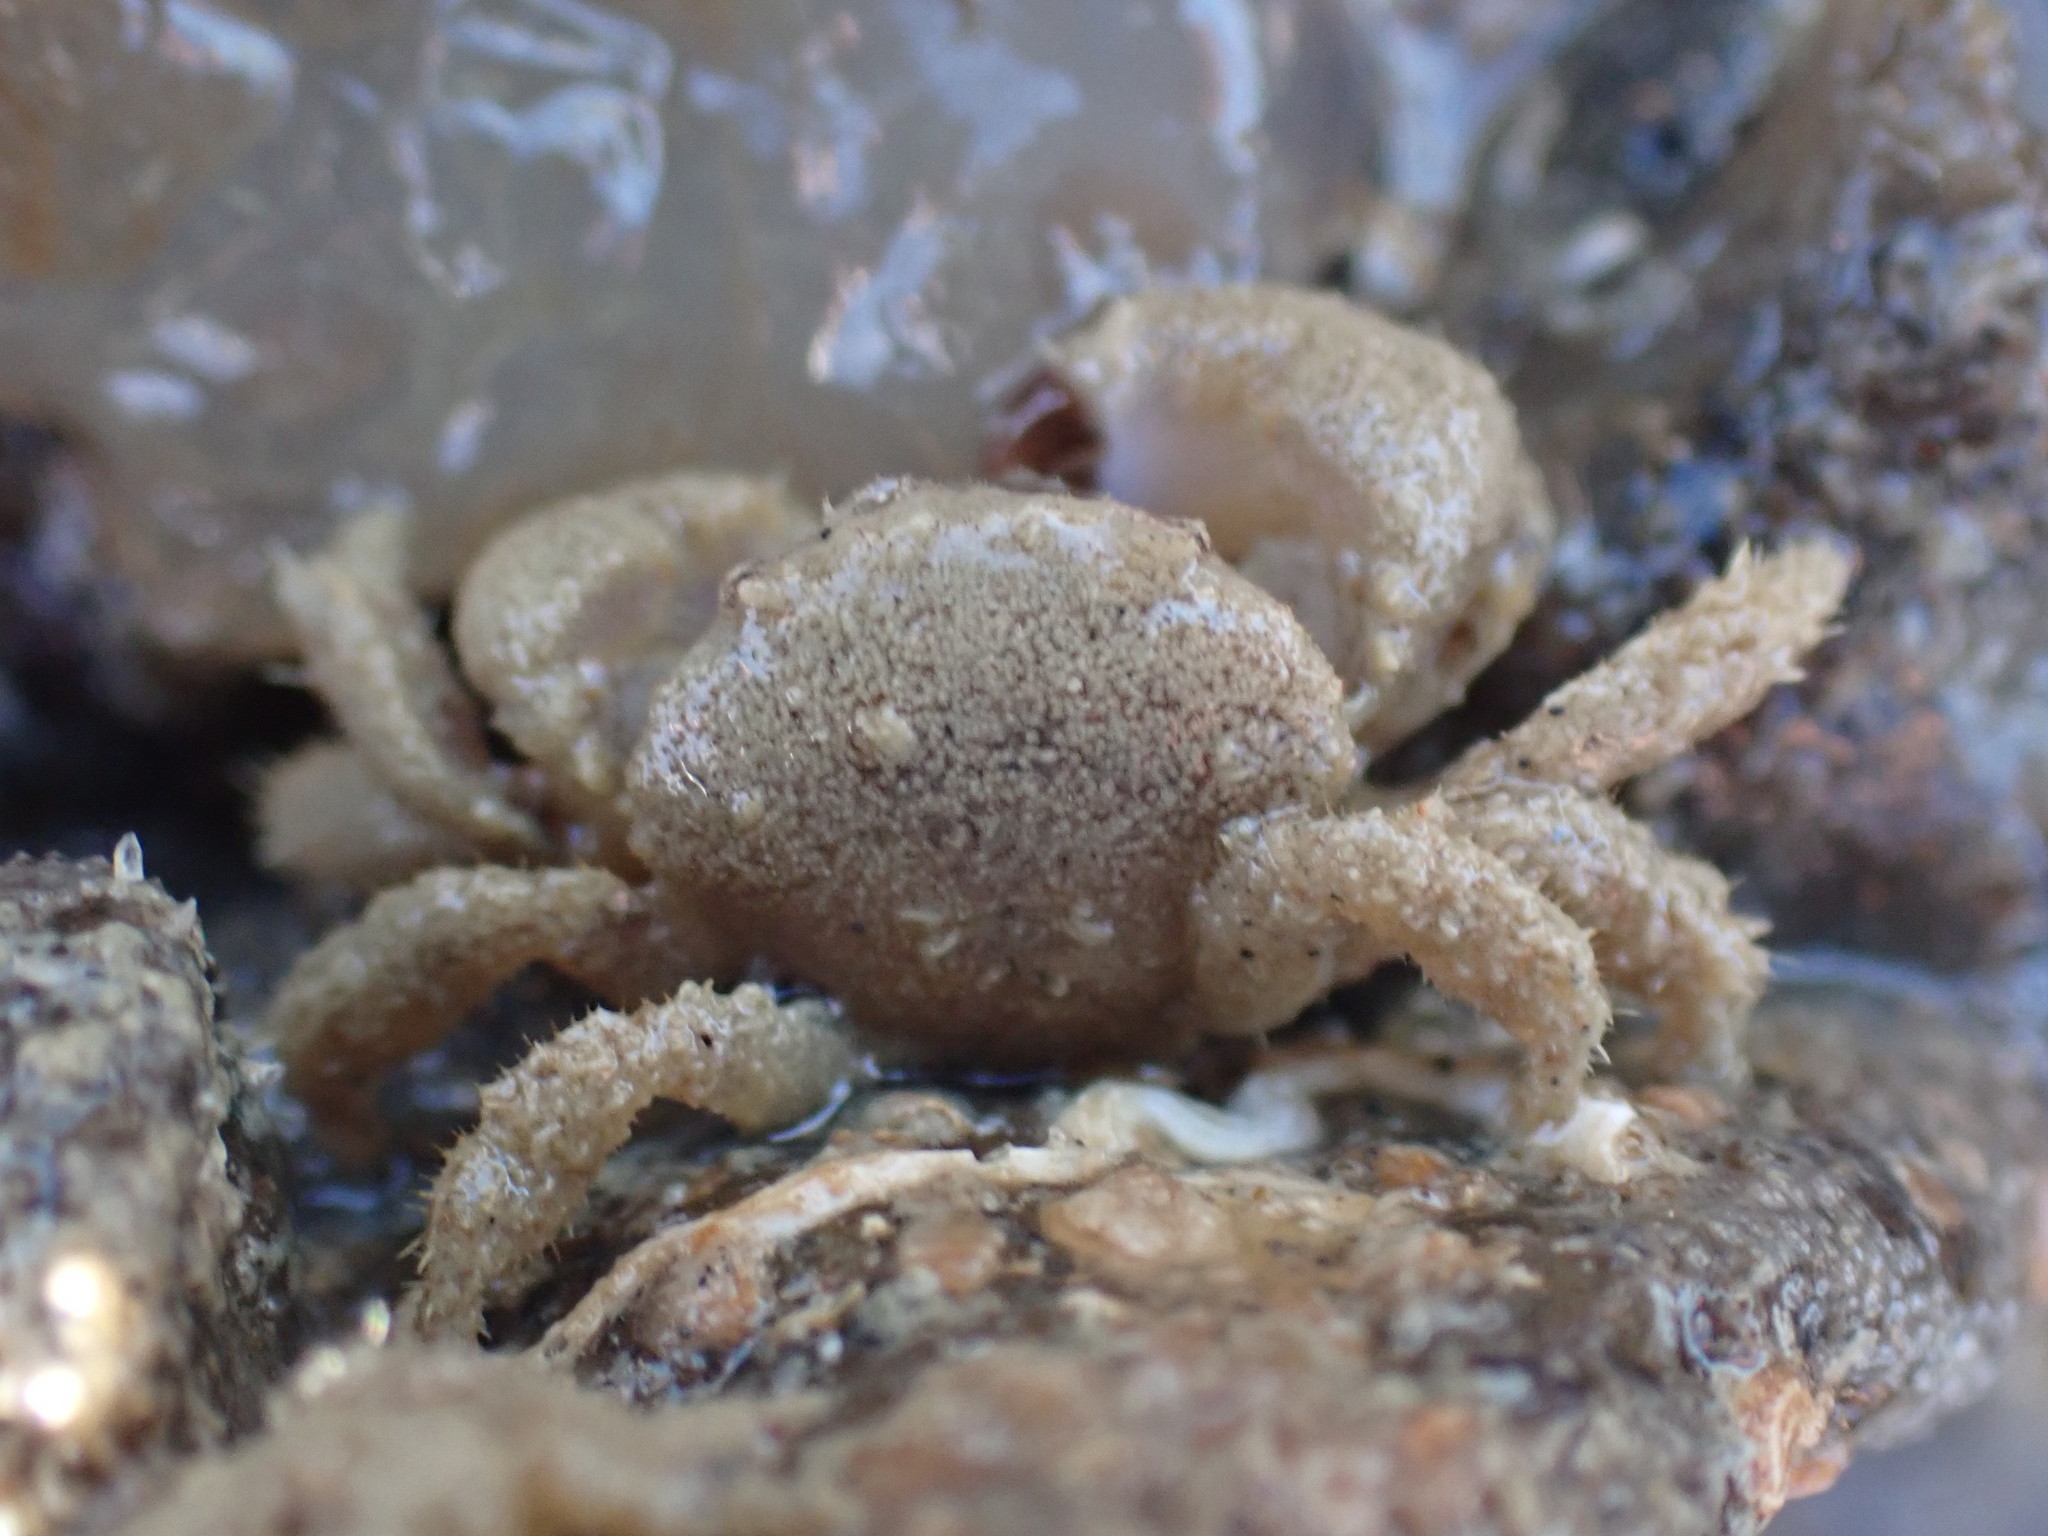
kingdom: Animalia
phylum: Arthropoda
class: Malacostraca
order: Decapoda
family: Pilumnidae
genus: Pilumnus
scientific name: Pilumnus lumpinus
